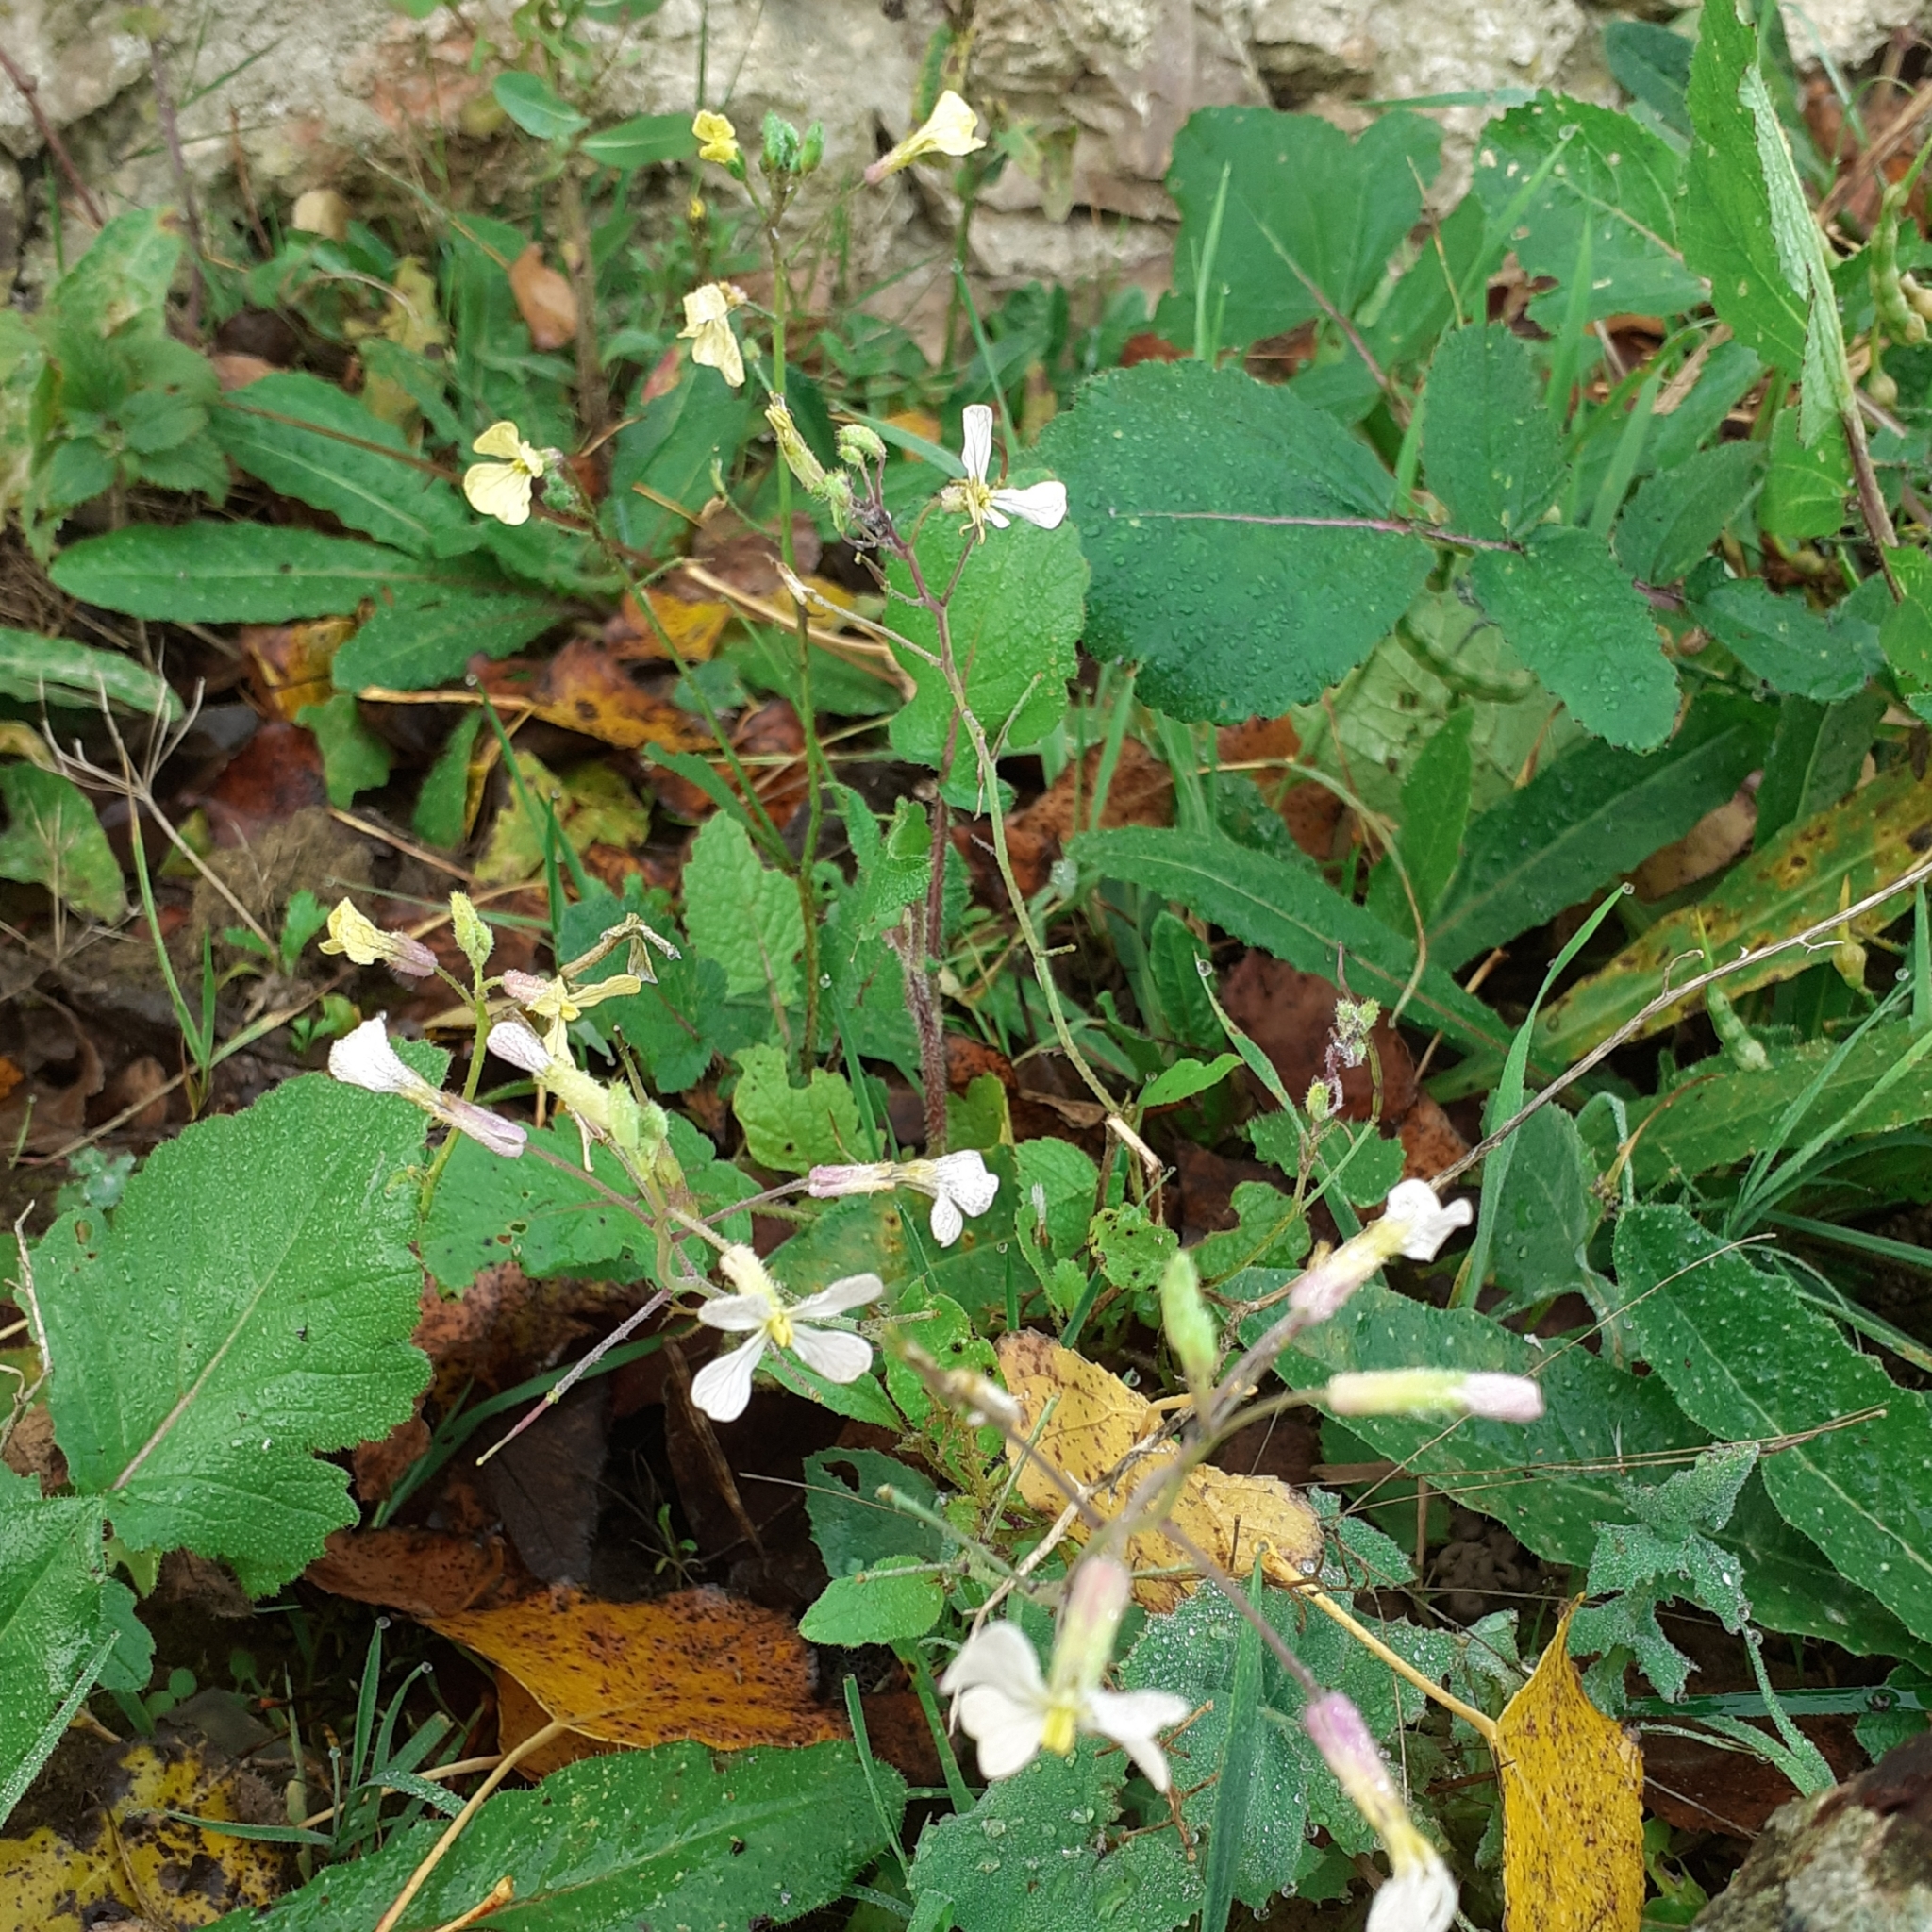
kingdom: Plantae
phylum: Tracheophyta
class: Magnoliopsida
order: Brassicales
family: Brassicaceae
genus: Raphanus
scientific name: Raphanus raphanistrum
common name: Wild radish
